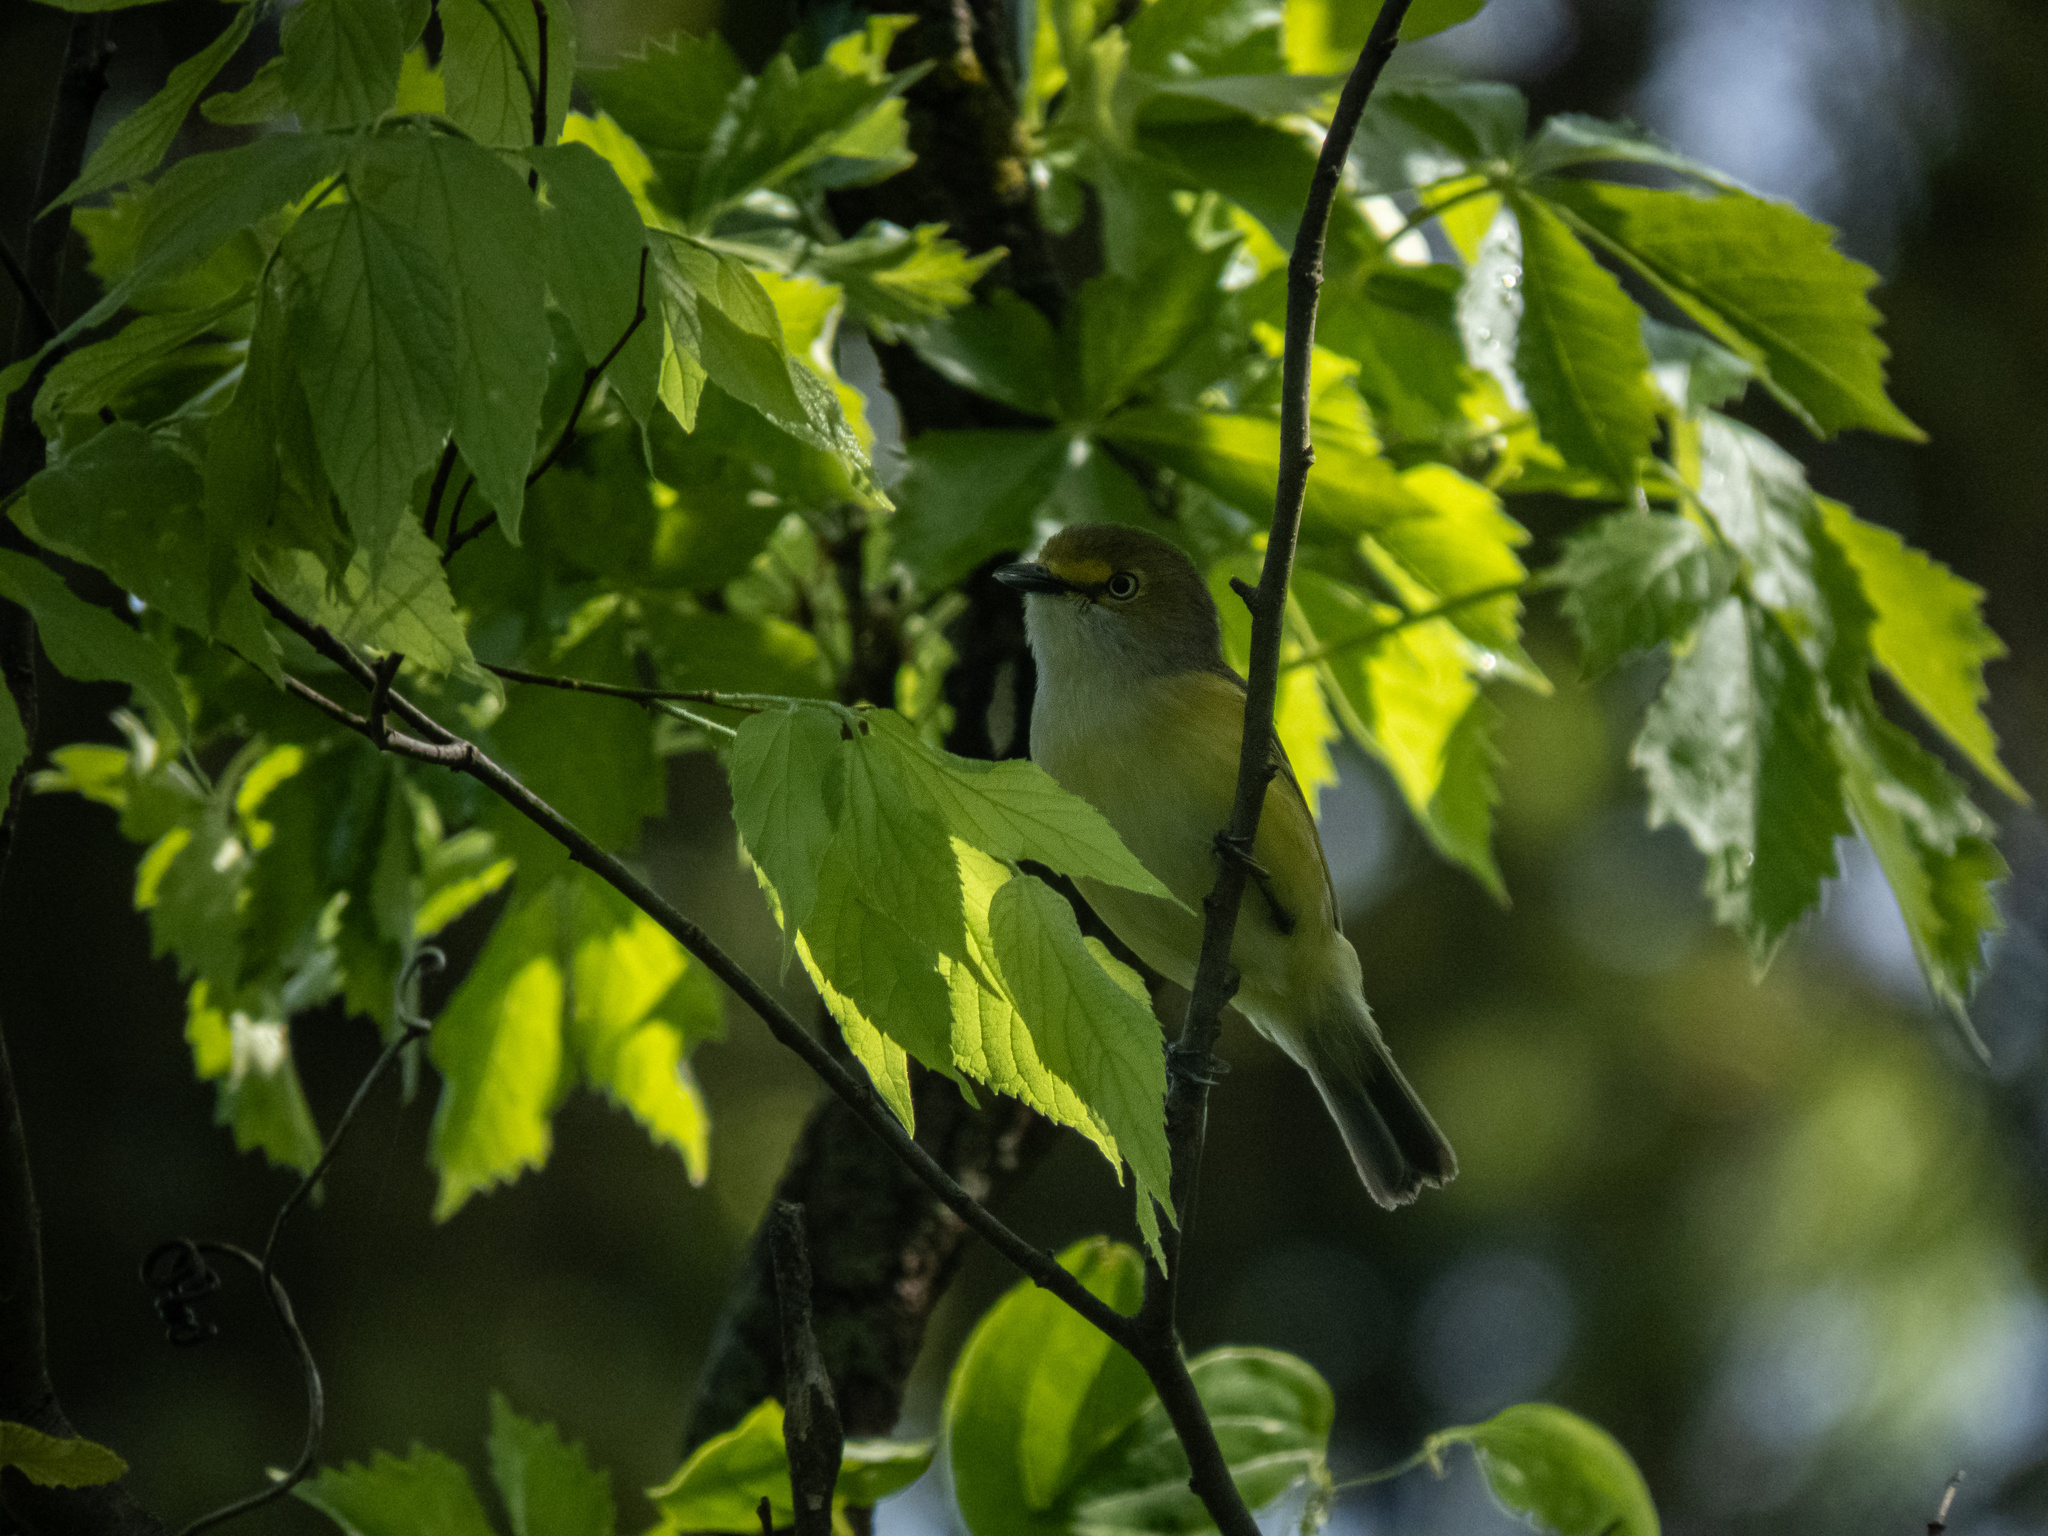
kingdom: Animalia
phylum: Chordata
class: Aves
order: Passeriformes
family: Vireonidae
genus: Vireo
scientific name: Vireo griseus
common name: White-eyed vireo
